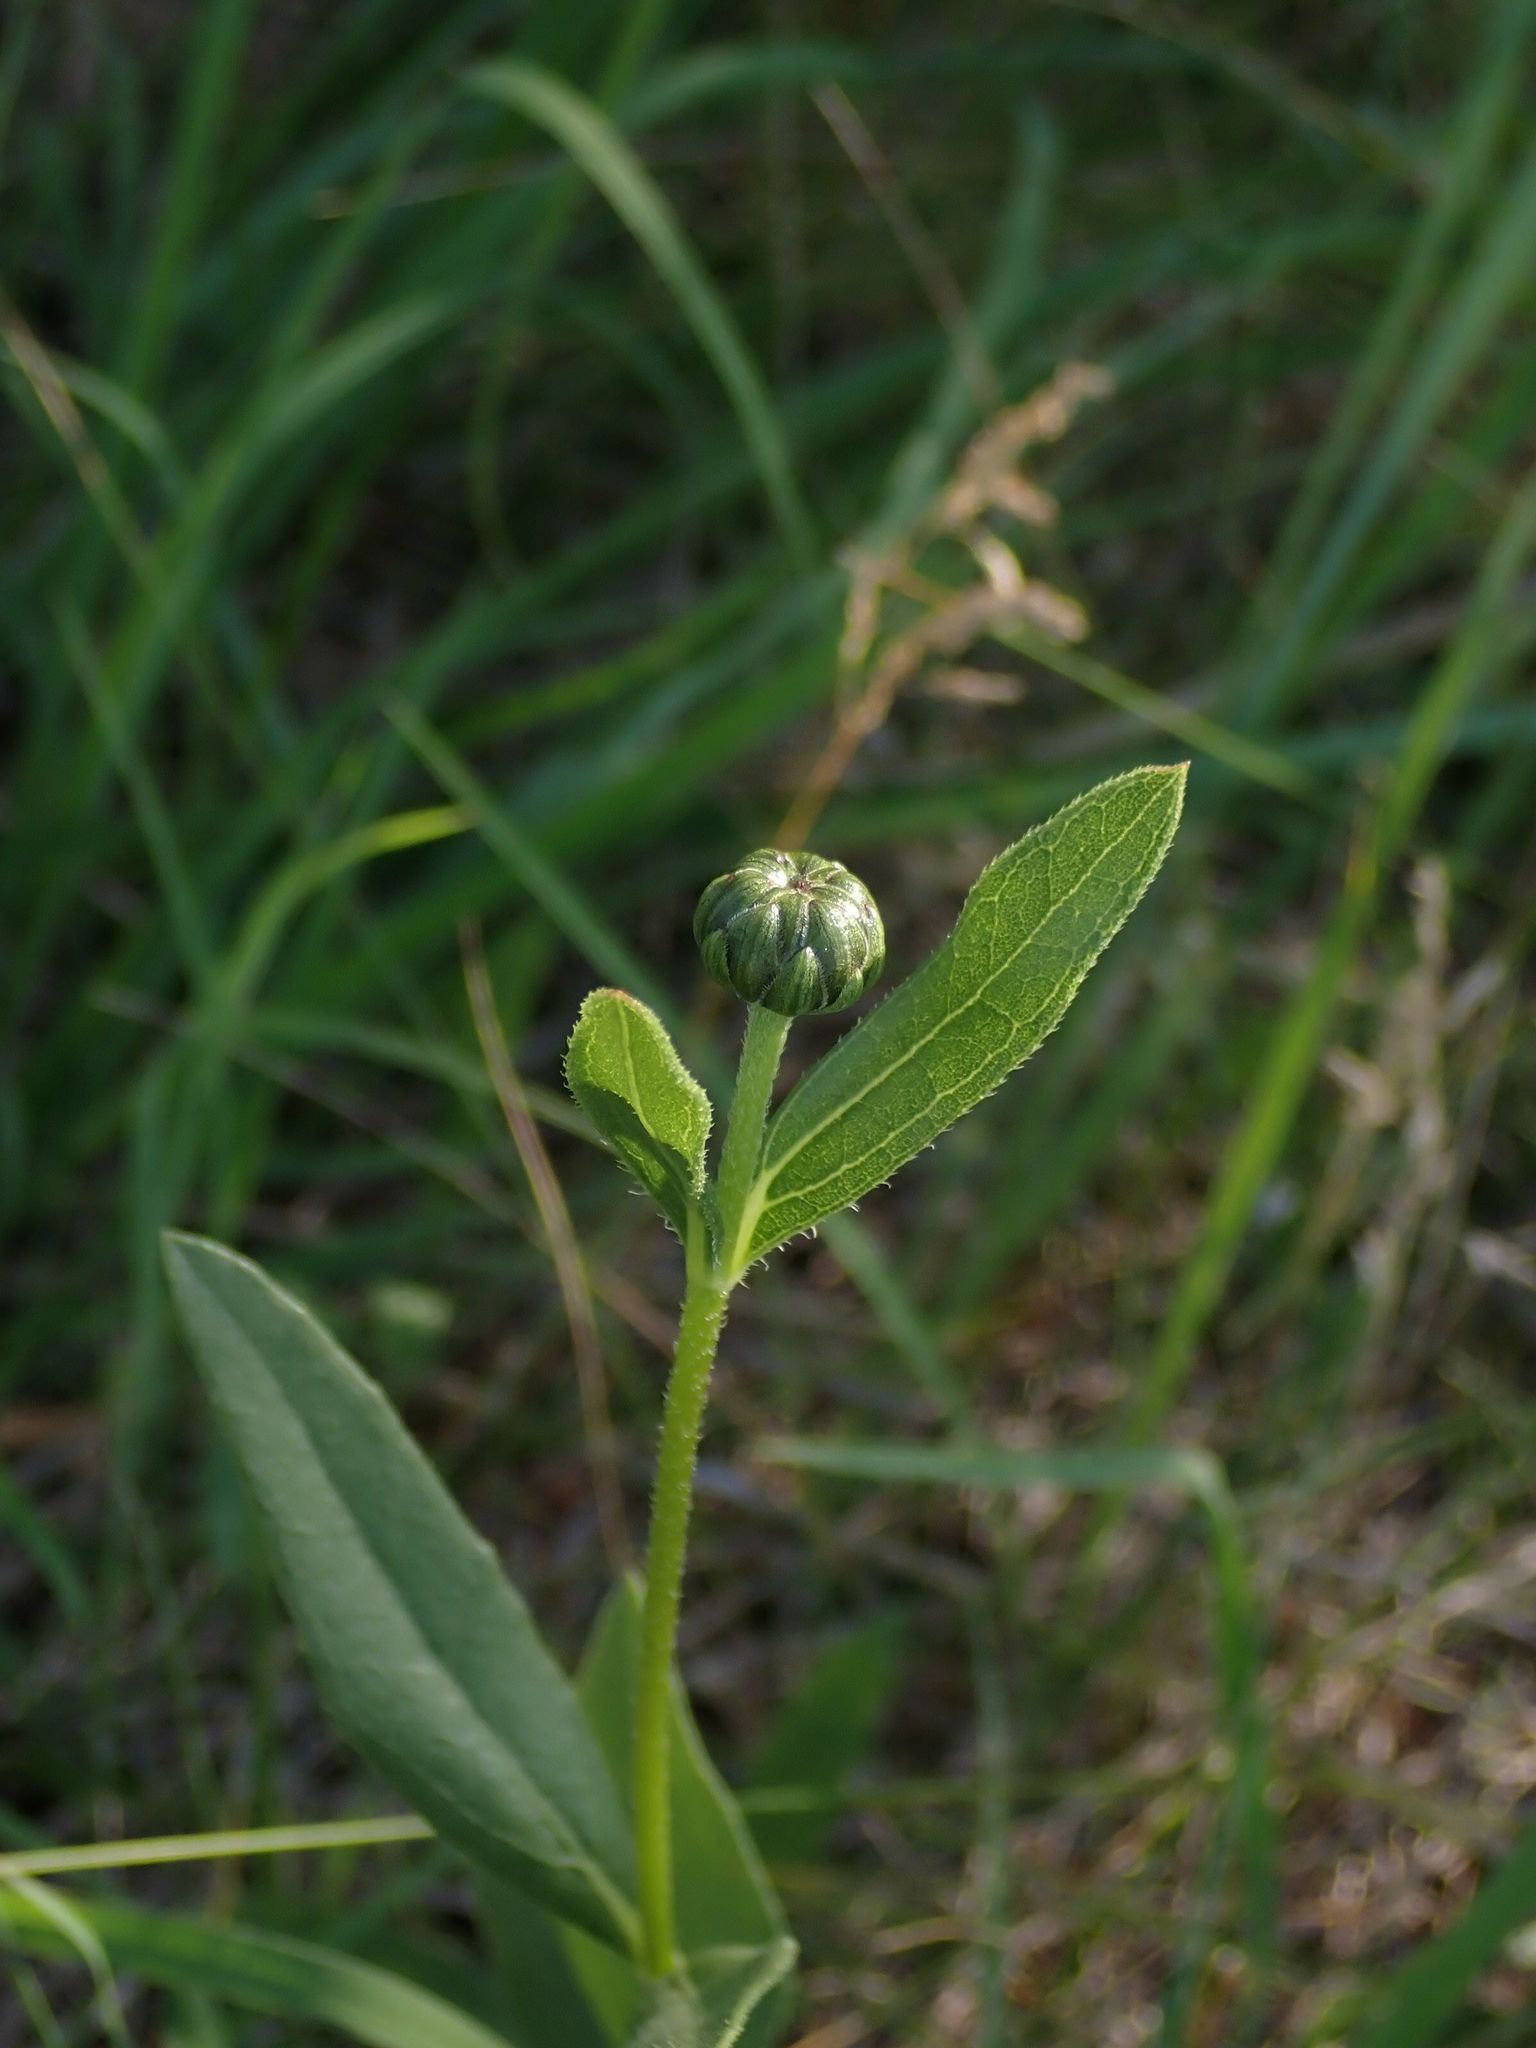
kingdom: Plantae
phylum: Tracheophyta
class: Magnoliopsida
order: Asterales
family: Asteraceae
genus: Helianthus
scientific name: Helianthus pauciflorus
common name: Stiff sunflower
